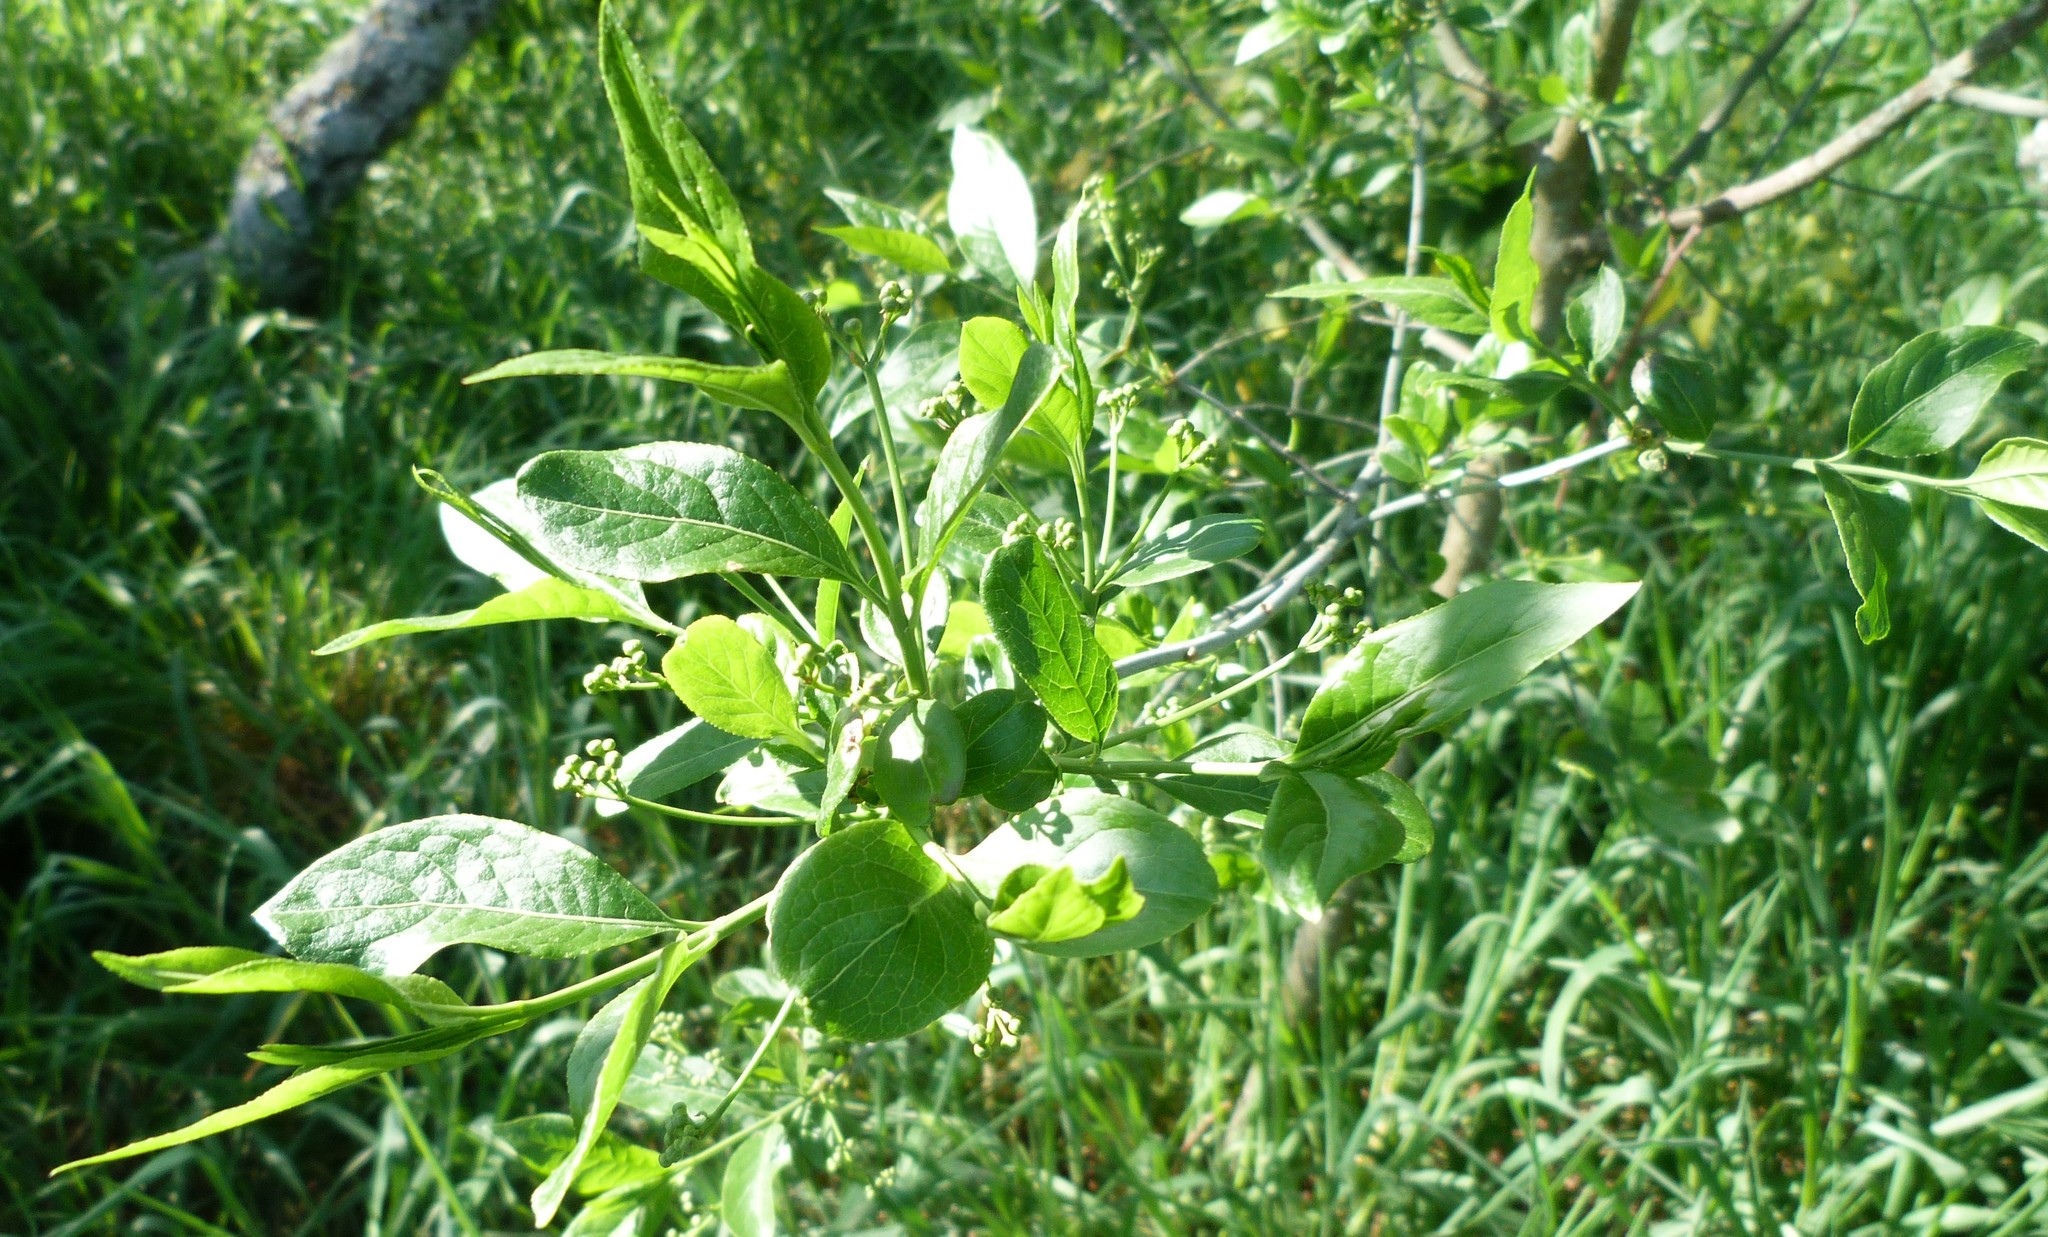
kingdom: Plantae
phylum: Tracheophyta
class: Magnoliopsida
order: Celastrales
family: Celastraceae
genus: Euonymus
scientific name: Euonymus europaeus
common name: Spindle
